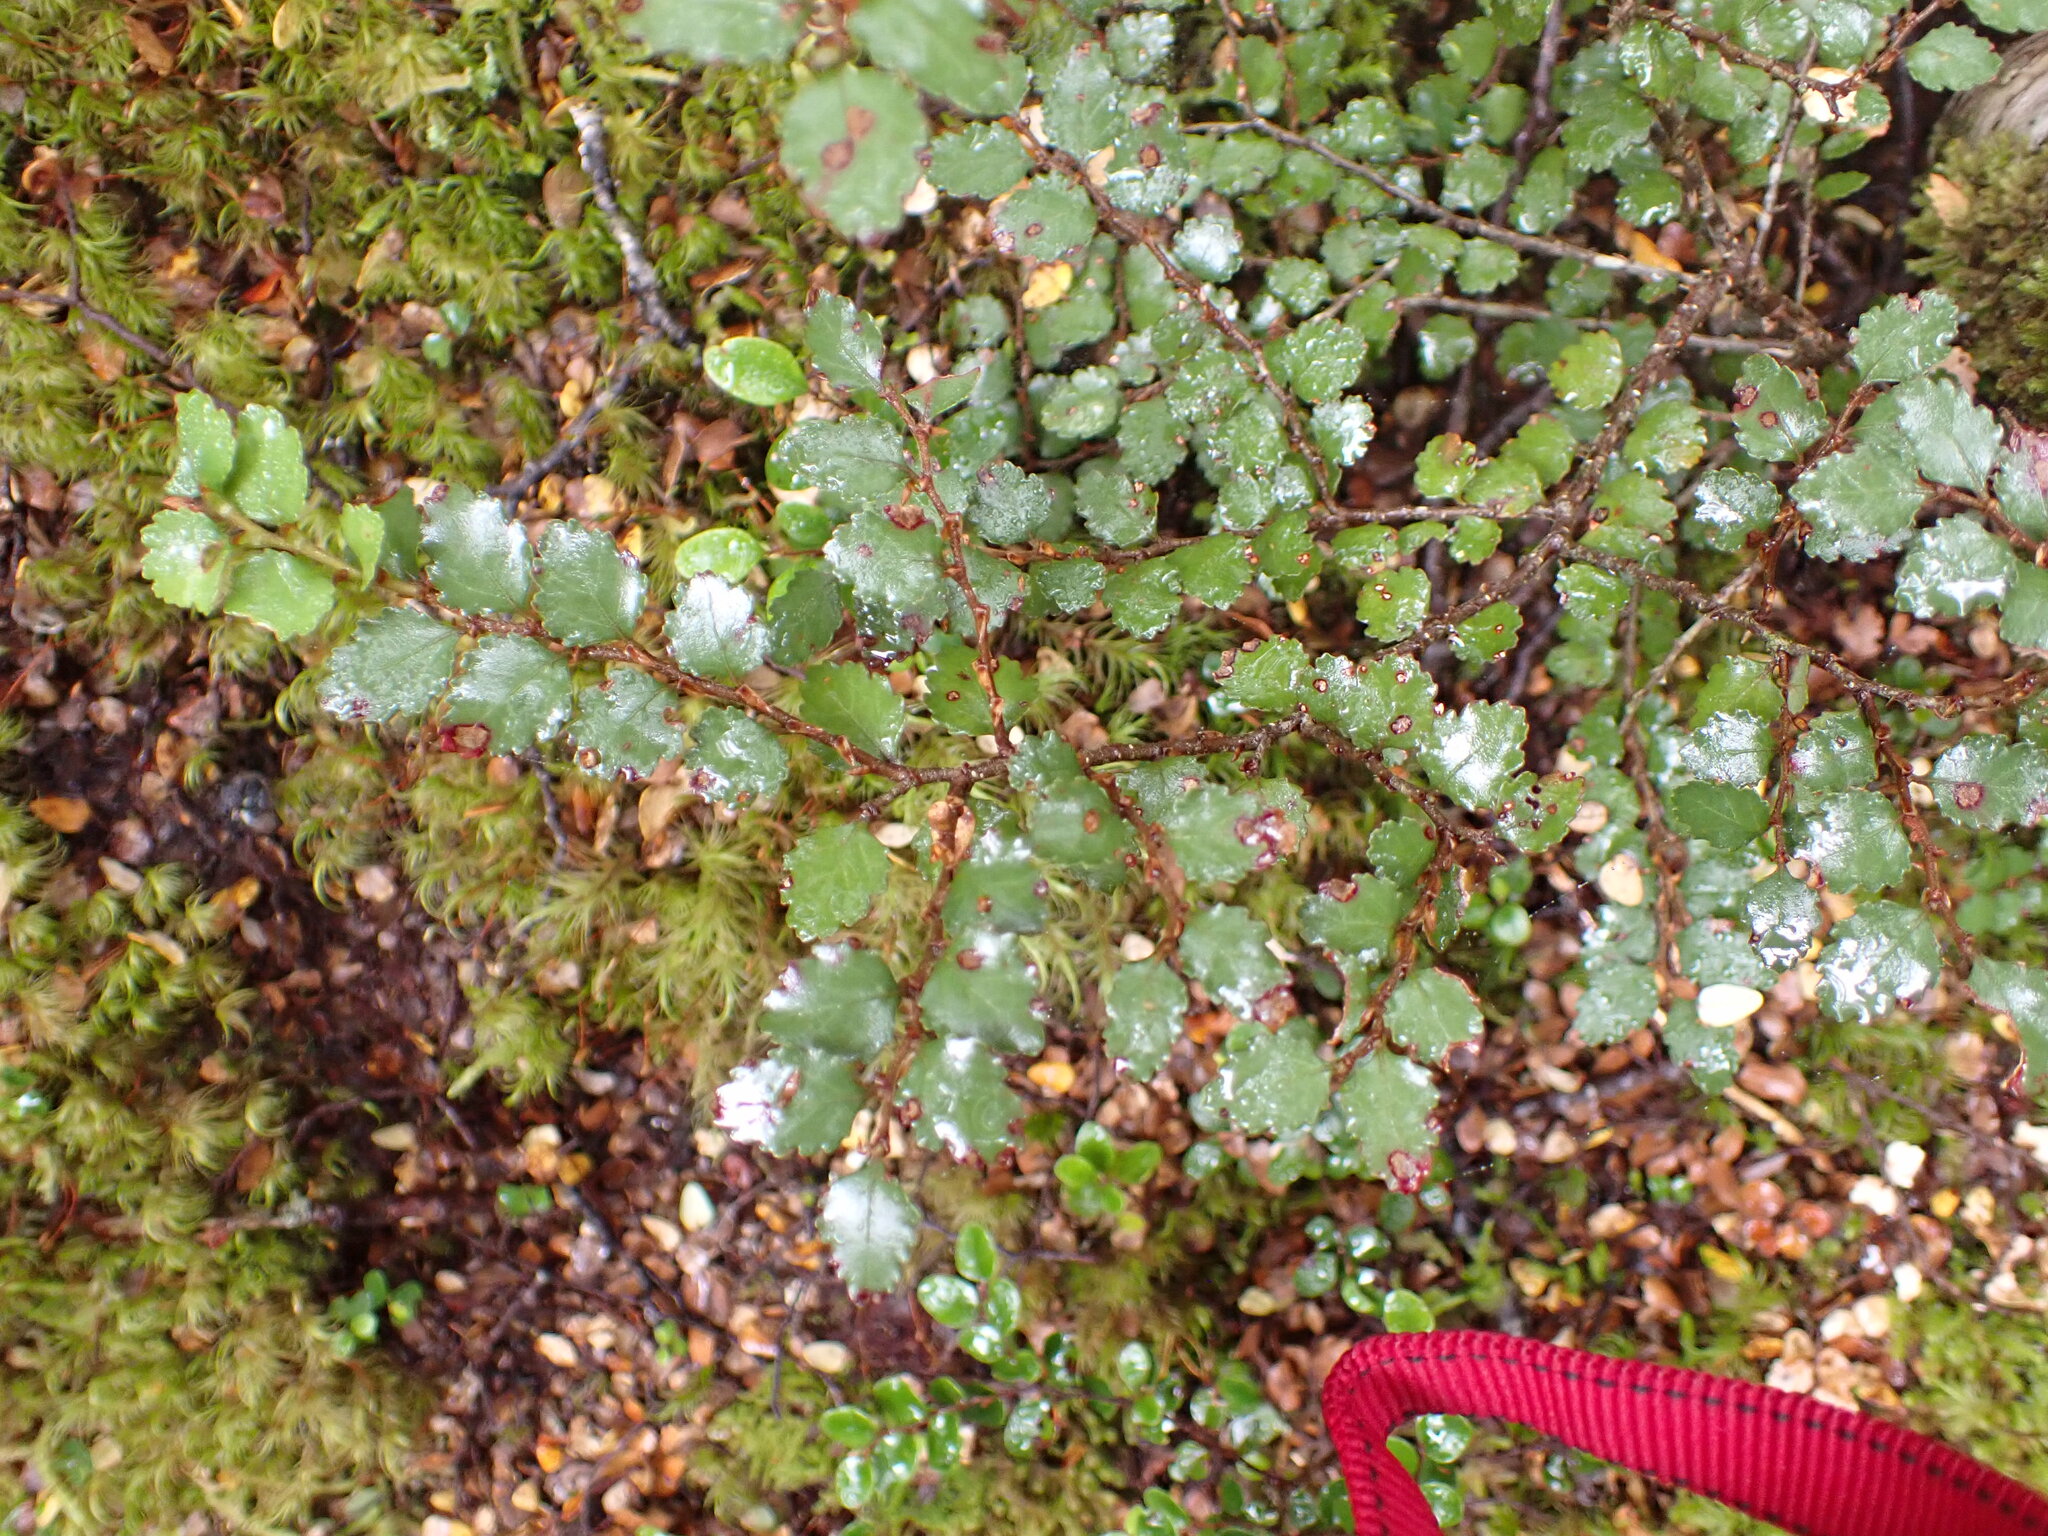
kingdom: Plantae
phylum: Tracheophyta
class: Magnoliopsida
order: Fagales
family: Nothofagaceae
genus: Nothofagus
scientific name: Nothofagus menziesii
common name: Silver beech
